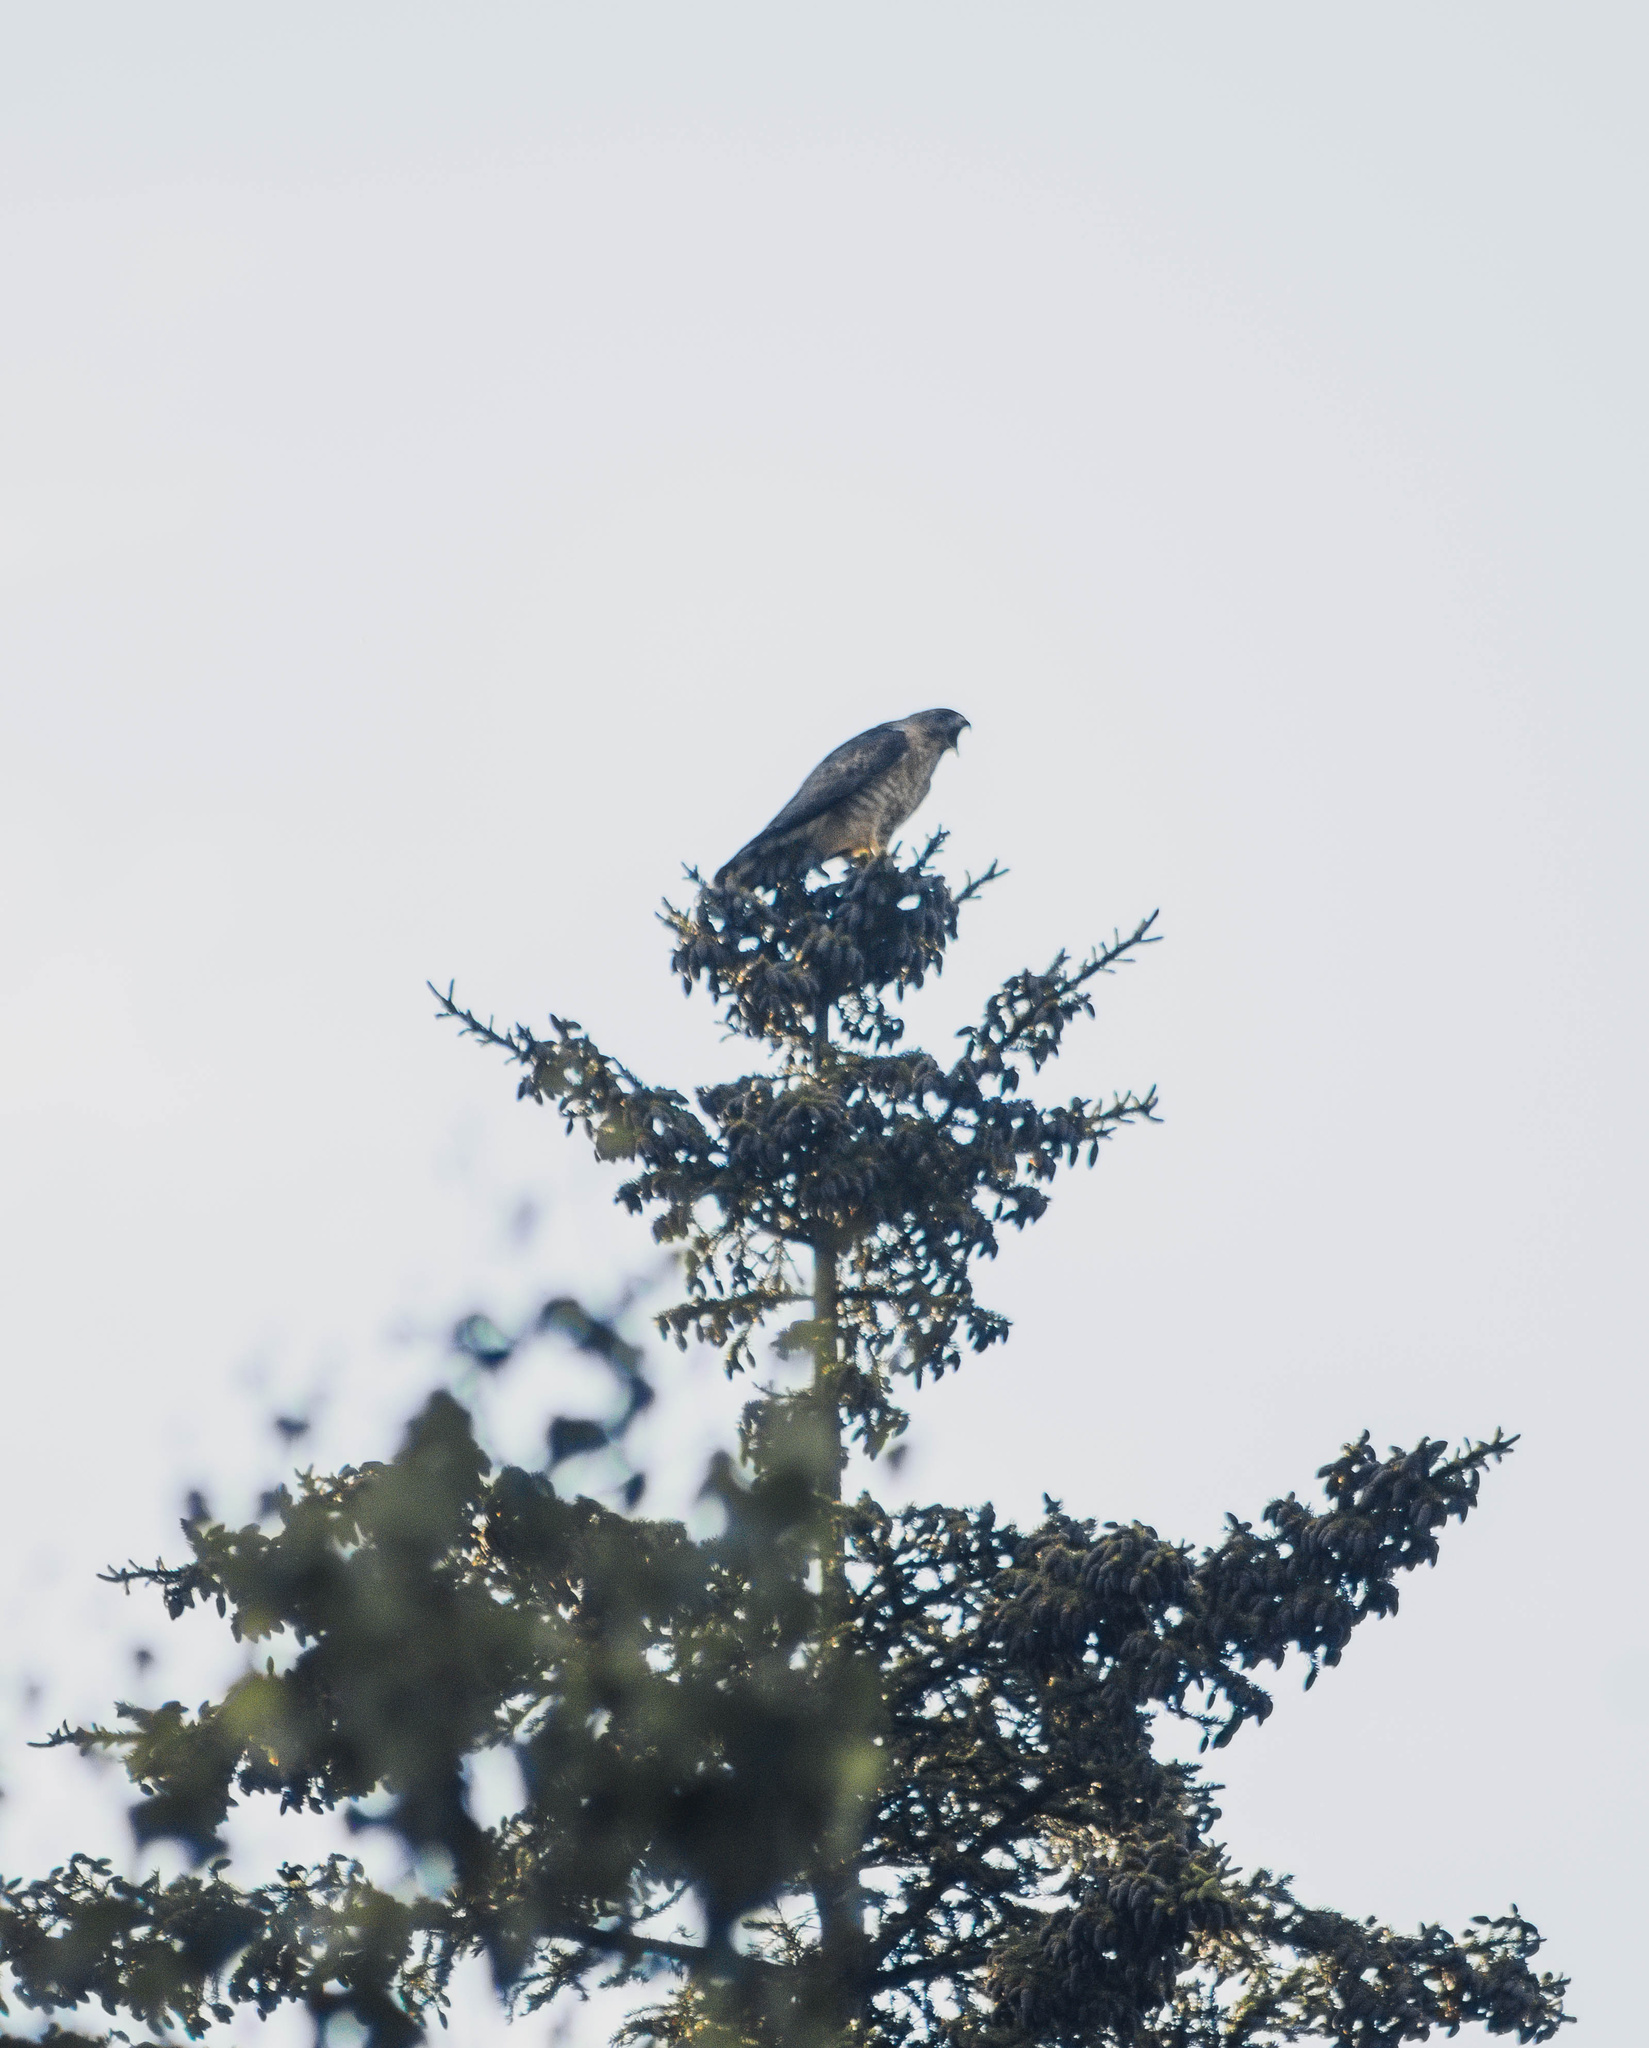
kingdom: Animalia
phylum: Chordata
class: Aves
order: Accipitriformes
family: Accipitridae
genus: Buteo
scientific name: Buteo jamaicensis
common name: Red-tailed hawk
